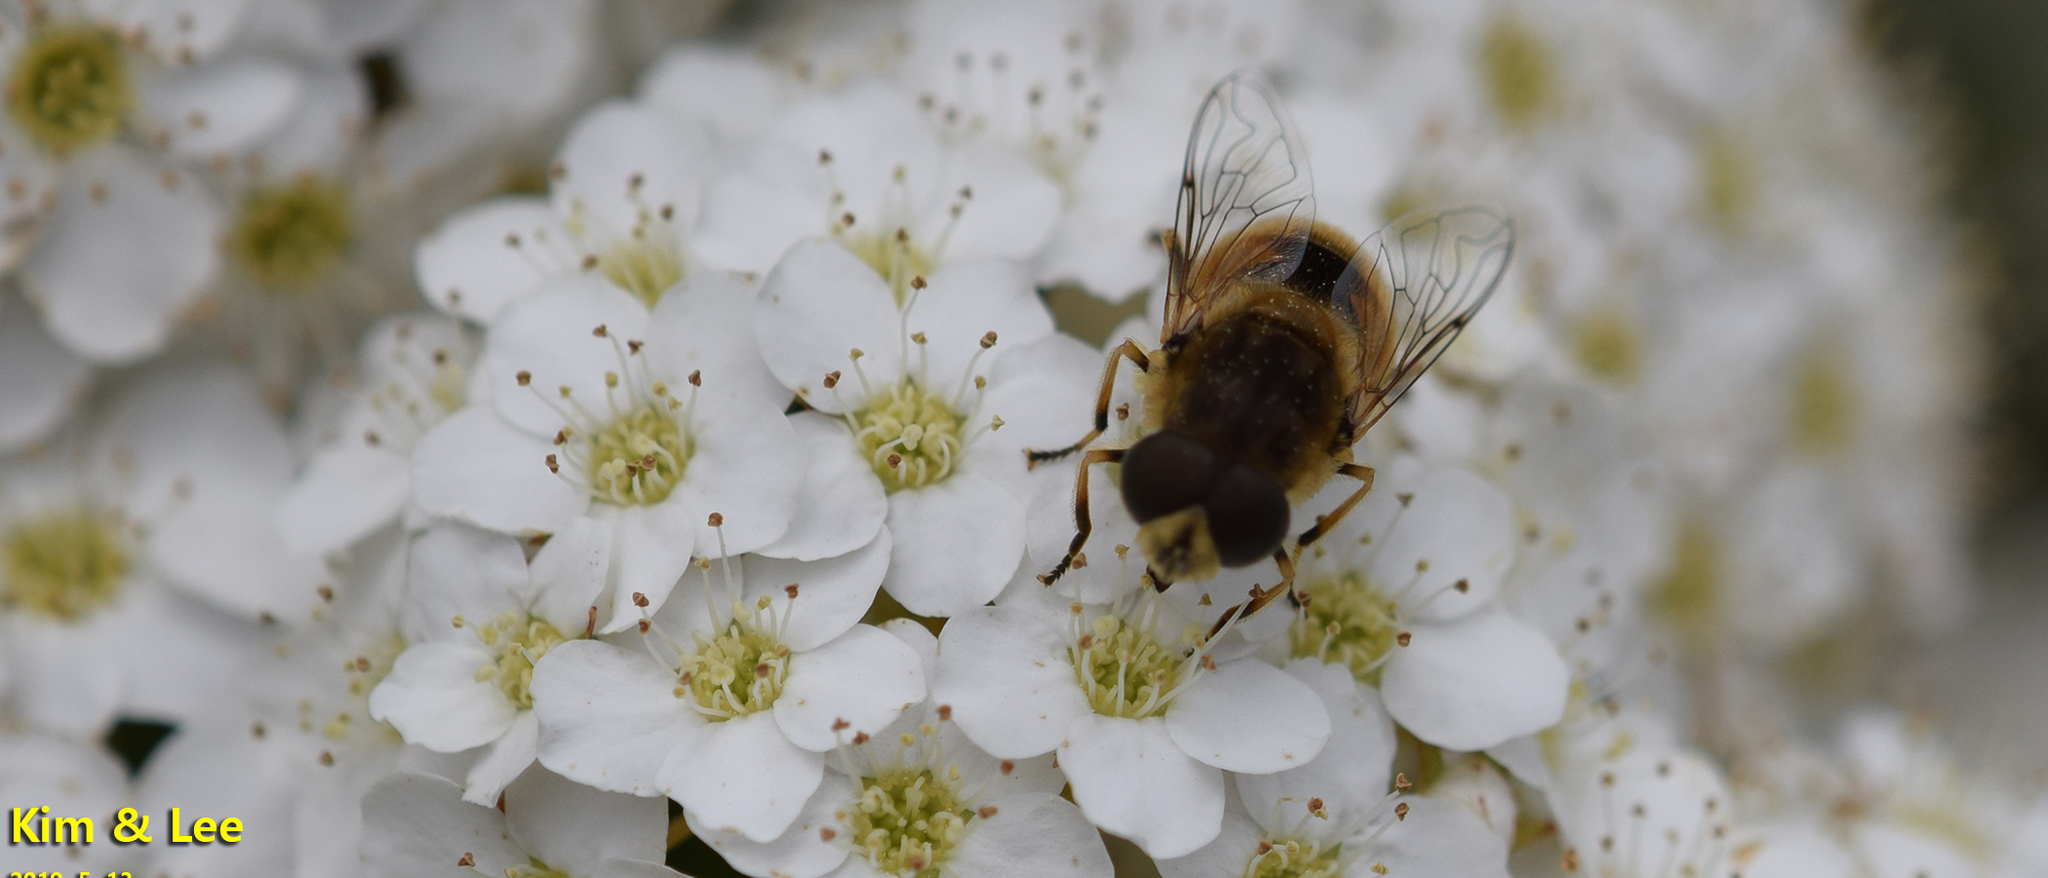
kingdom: Animalia
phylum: Arthropoda
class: Insecta
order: Diptera
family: Syrphidae
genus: Eristalis
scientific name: Eristalis arbustorum
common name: Hover fly
